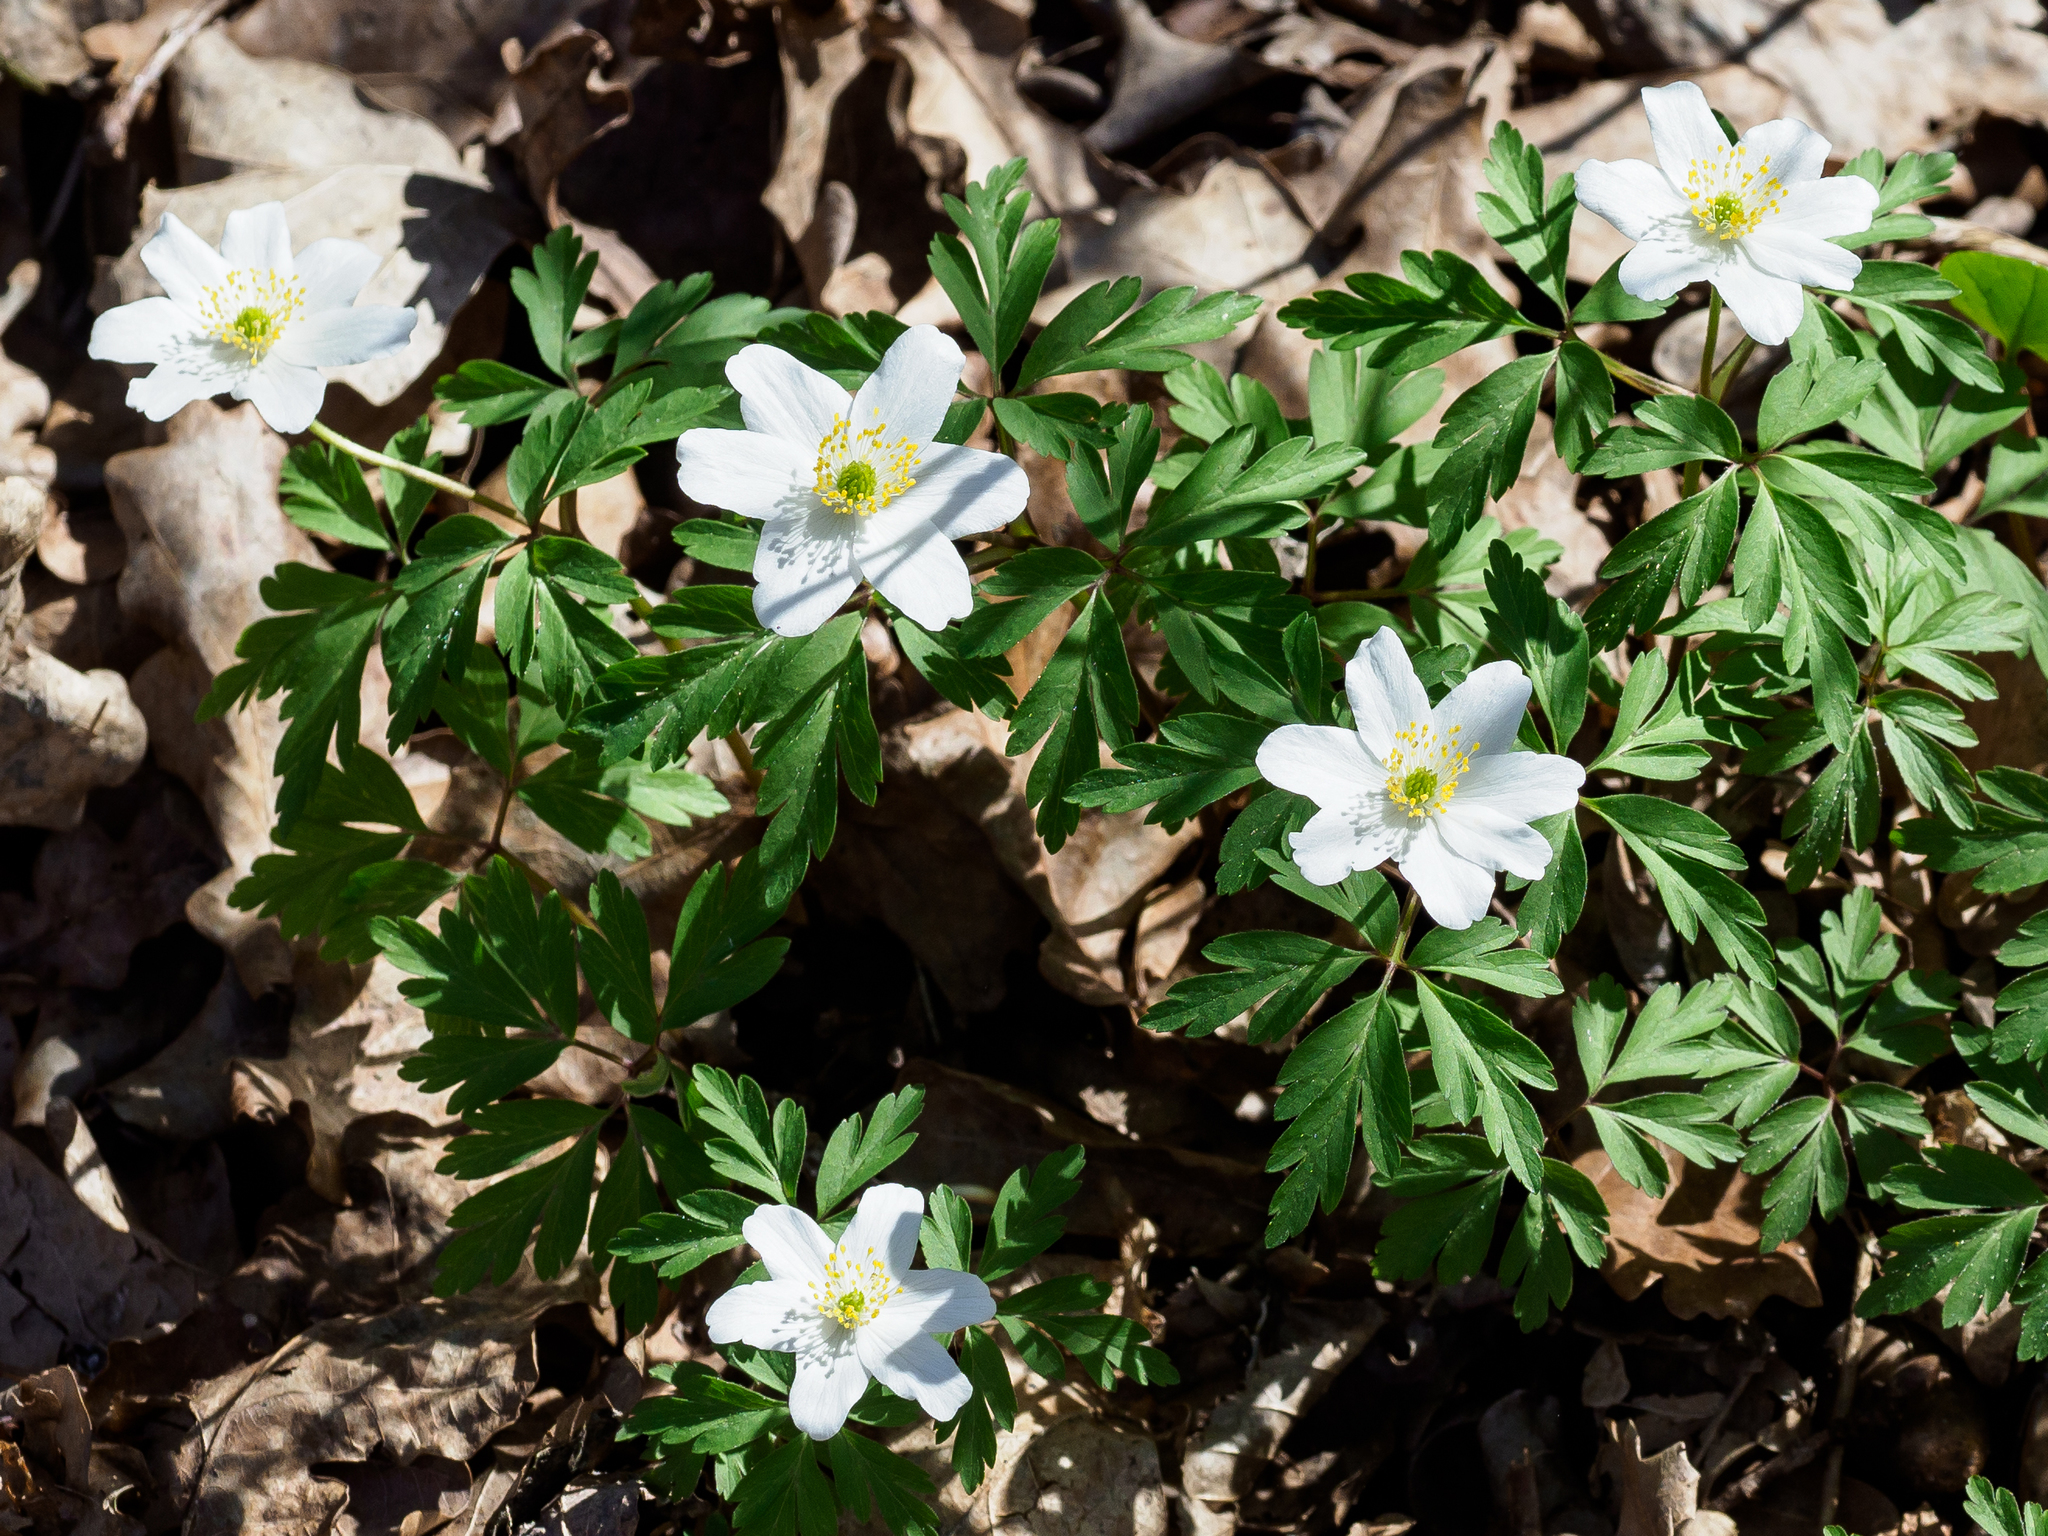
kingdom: Plantae
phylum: Tracheophyta
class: Magnoliopsida
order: Ranunculales
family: Ranunculaceae
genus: Anemone
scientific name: Anemone nemorosa
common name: Wood anemone
